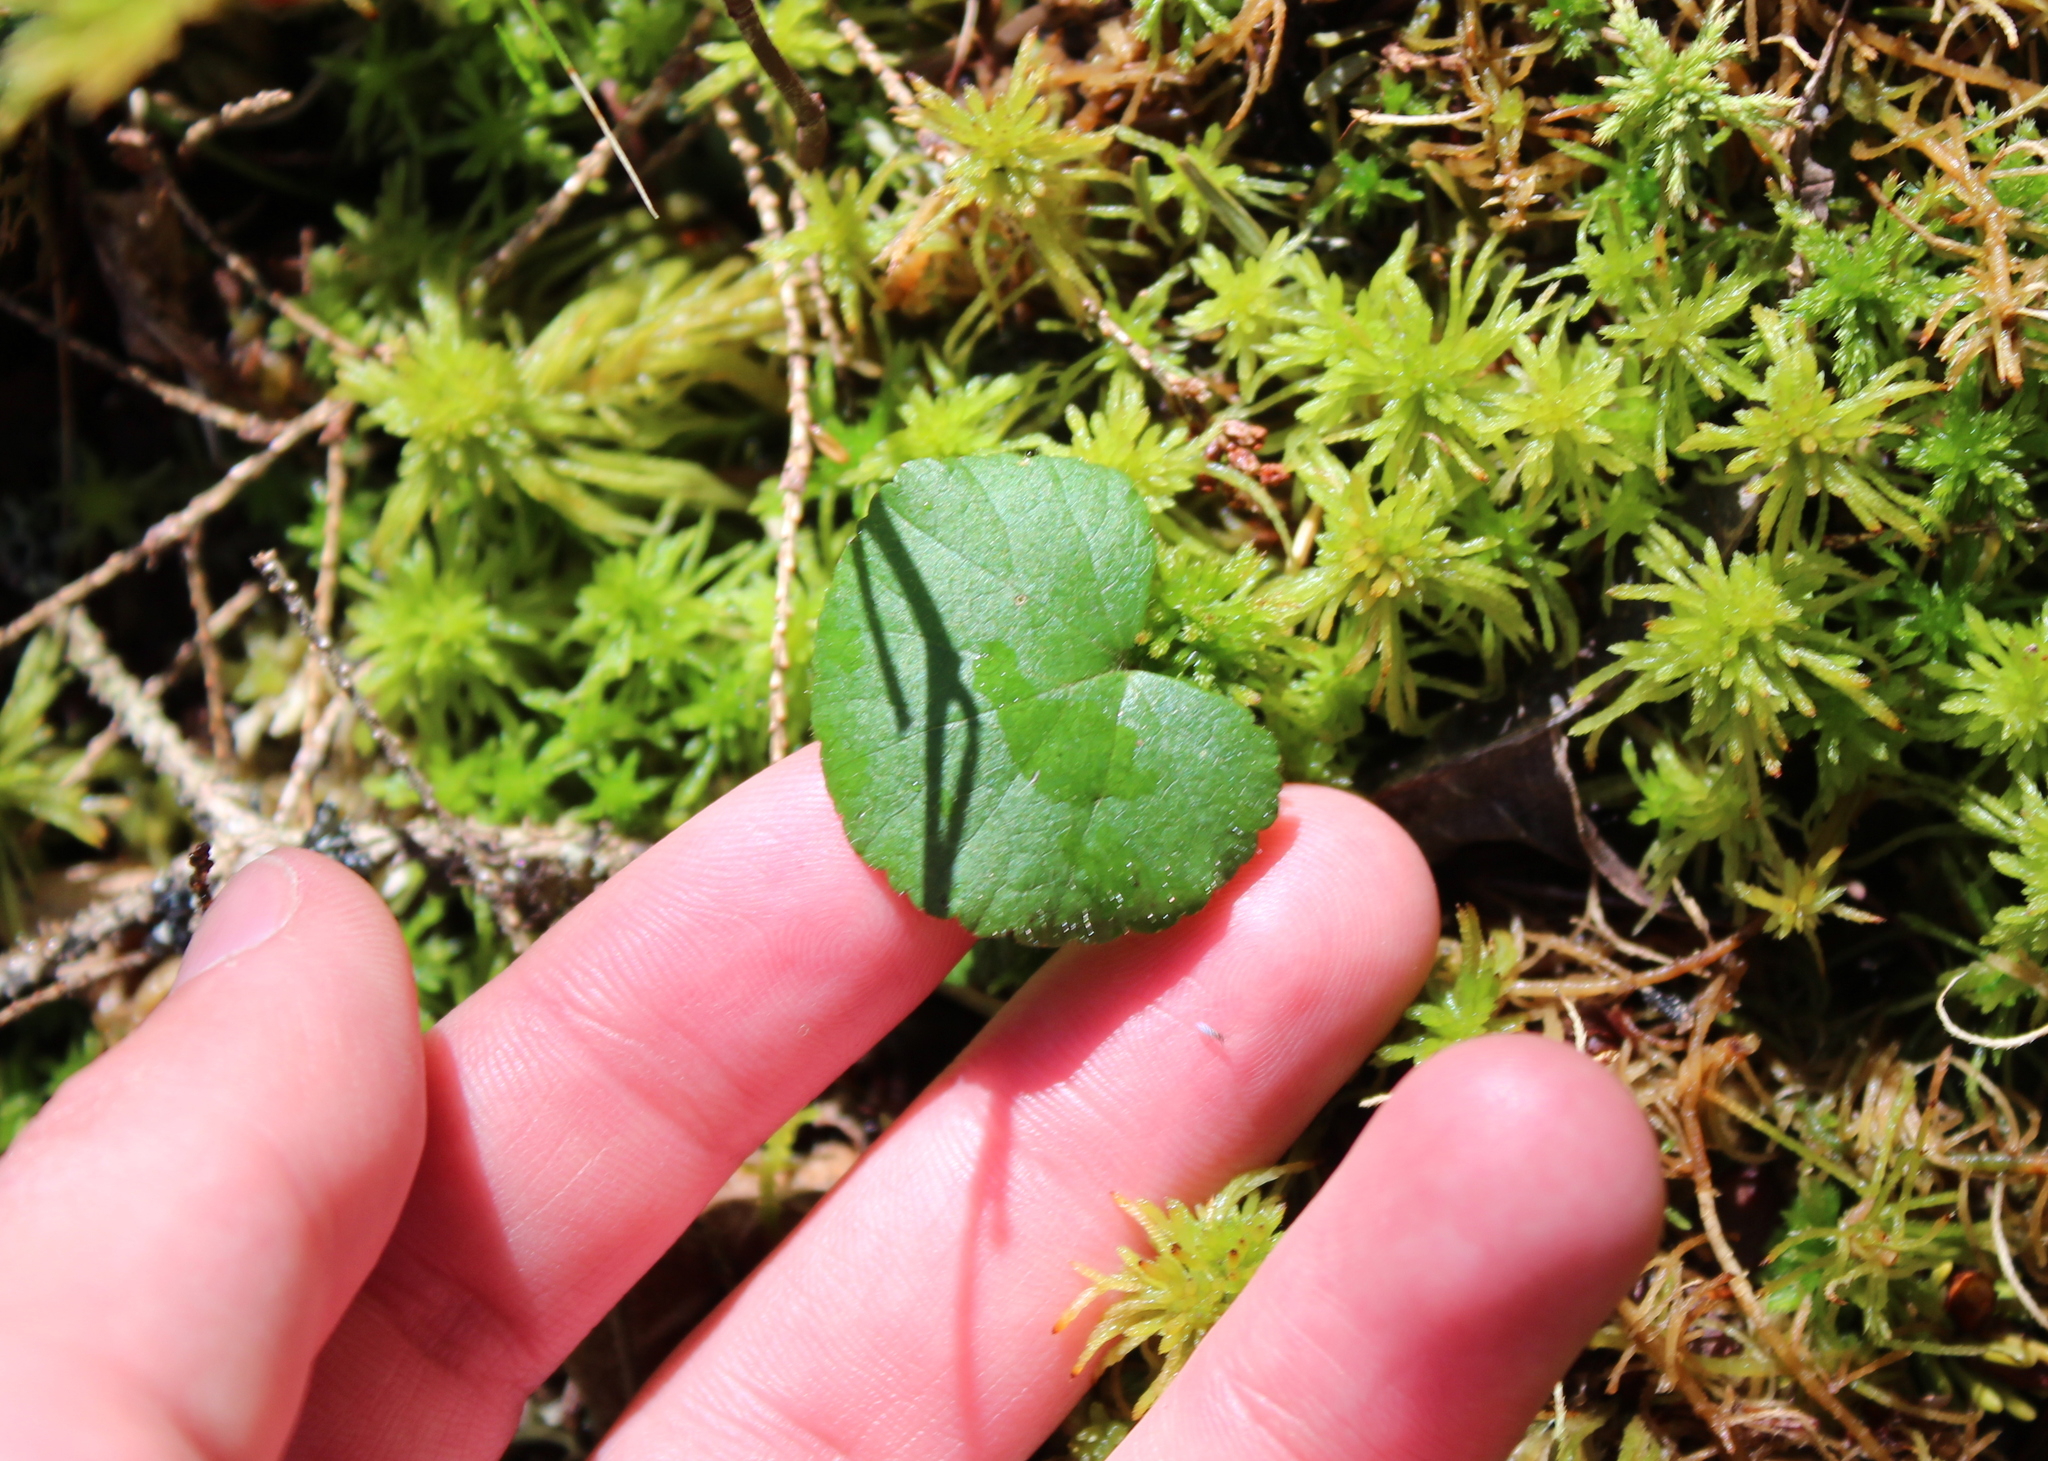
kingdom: Plantae
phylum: Tracheophyta
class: Magnoliopsida
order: Rosales
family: Rosaceae
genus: Dalibarda
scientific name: Dalibarda repens
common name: Dewdrop
